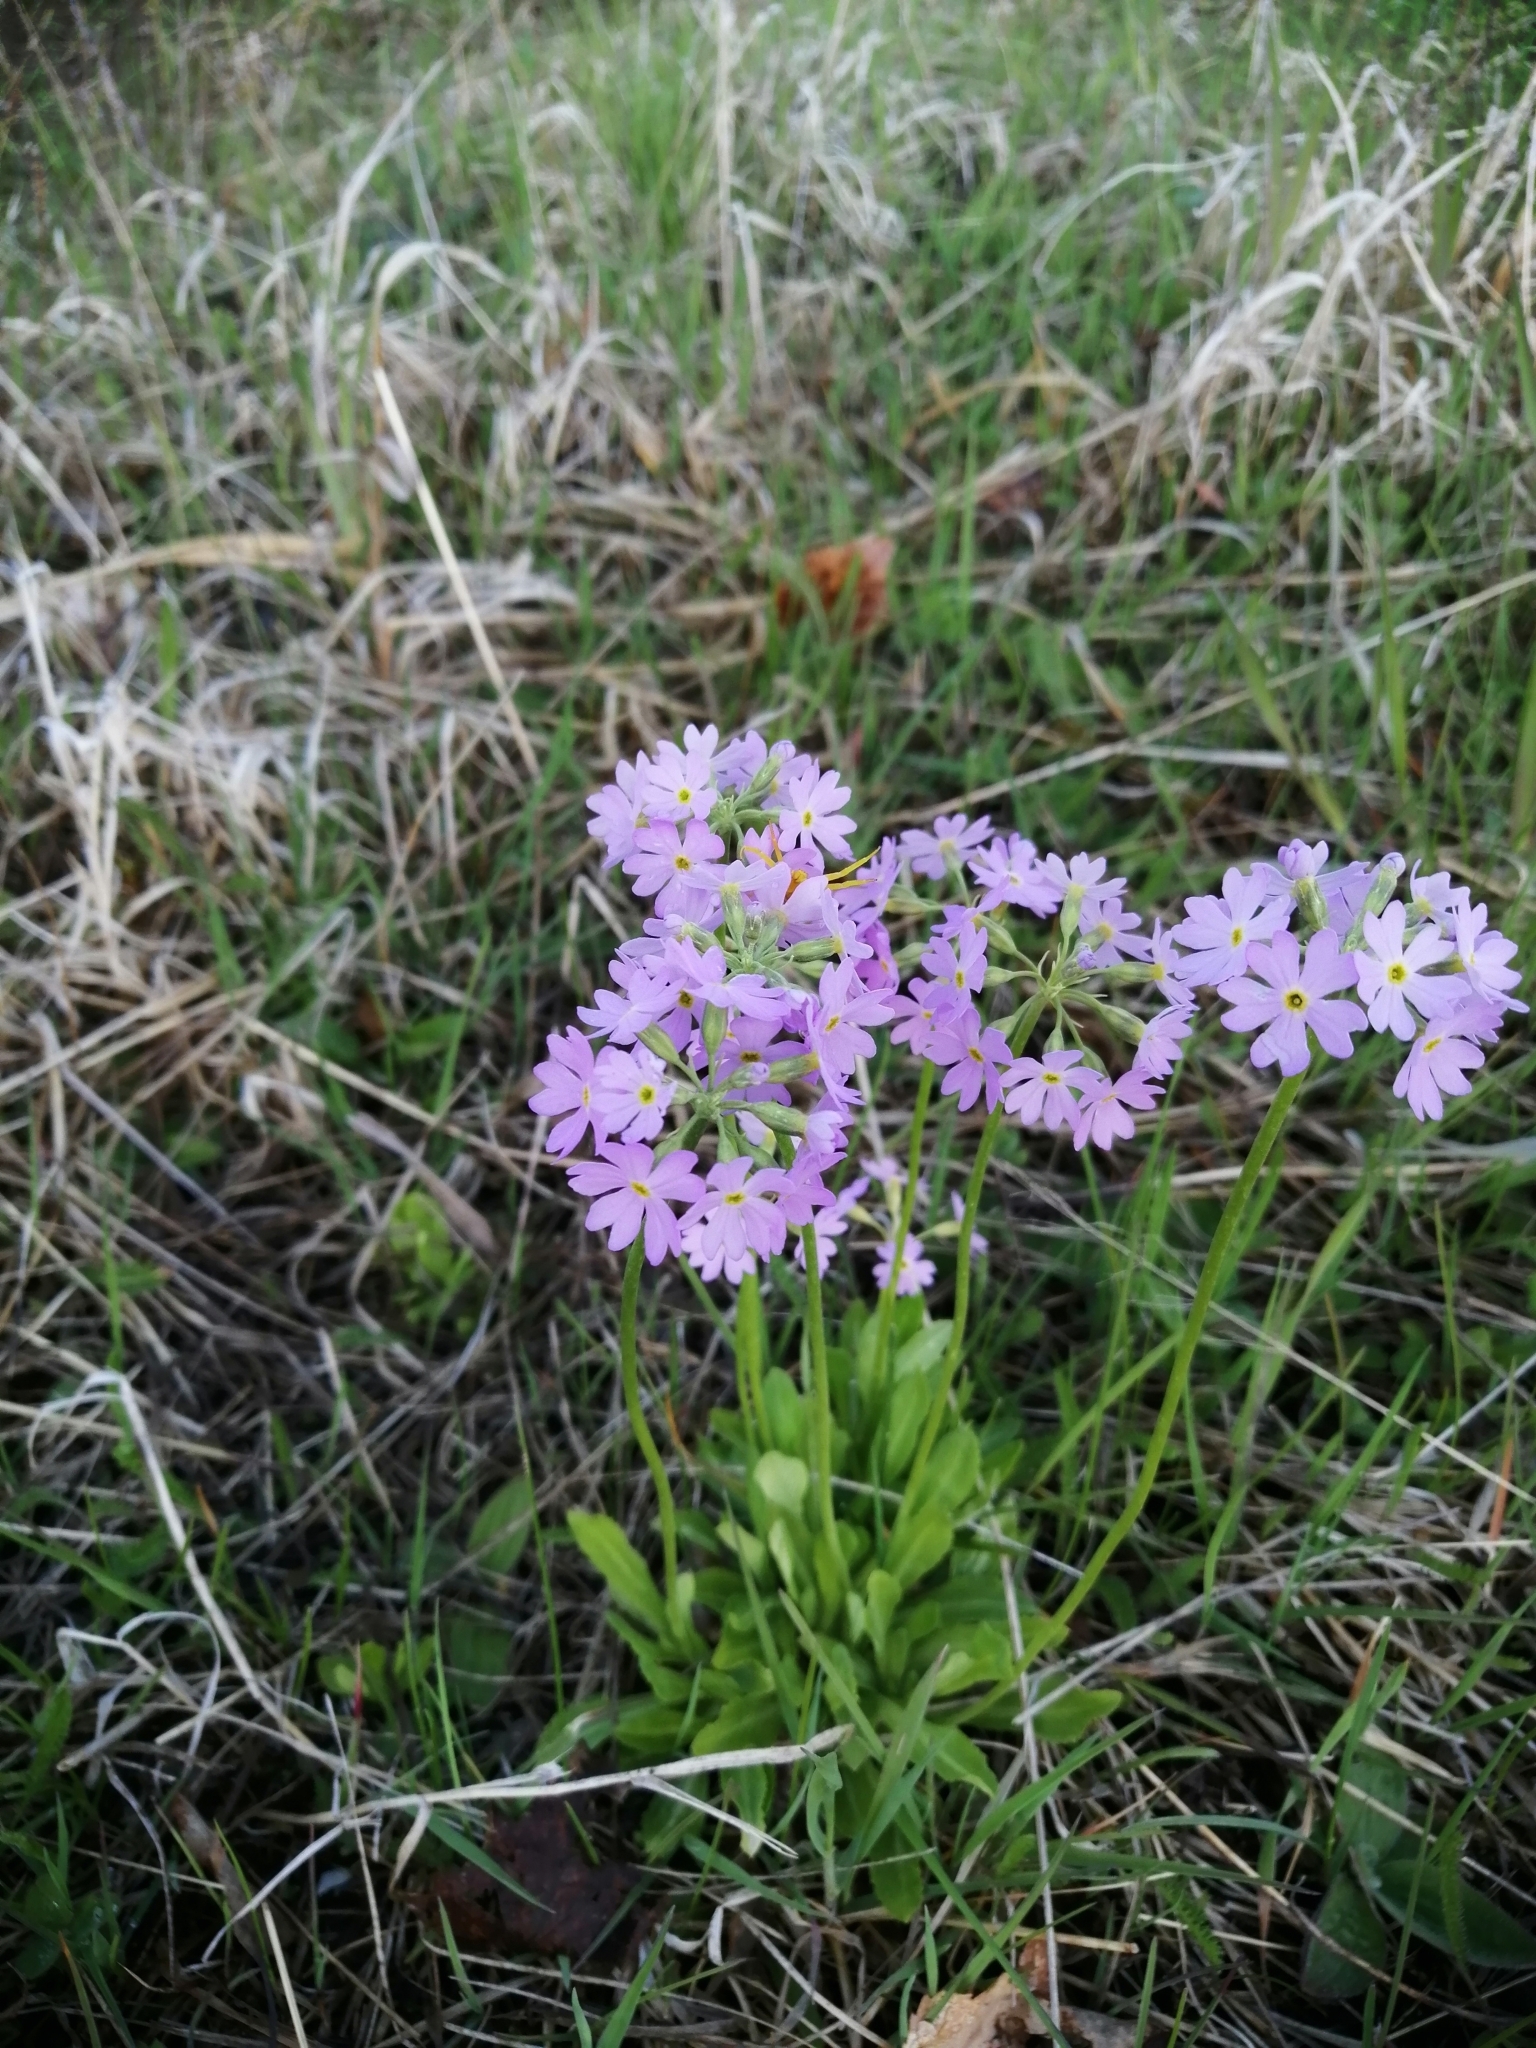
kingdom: Plantae
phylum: Tracheophyta
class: Magnoliopsida
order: Ericales
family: Primulaceae
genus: Primula
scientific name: Primula nutans
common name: Siberian primrose
